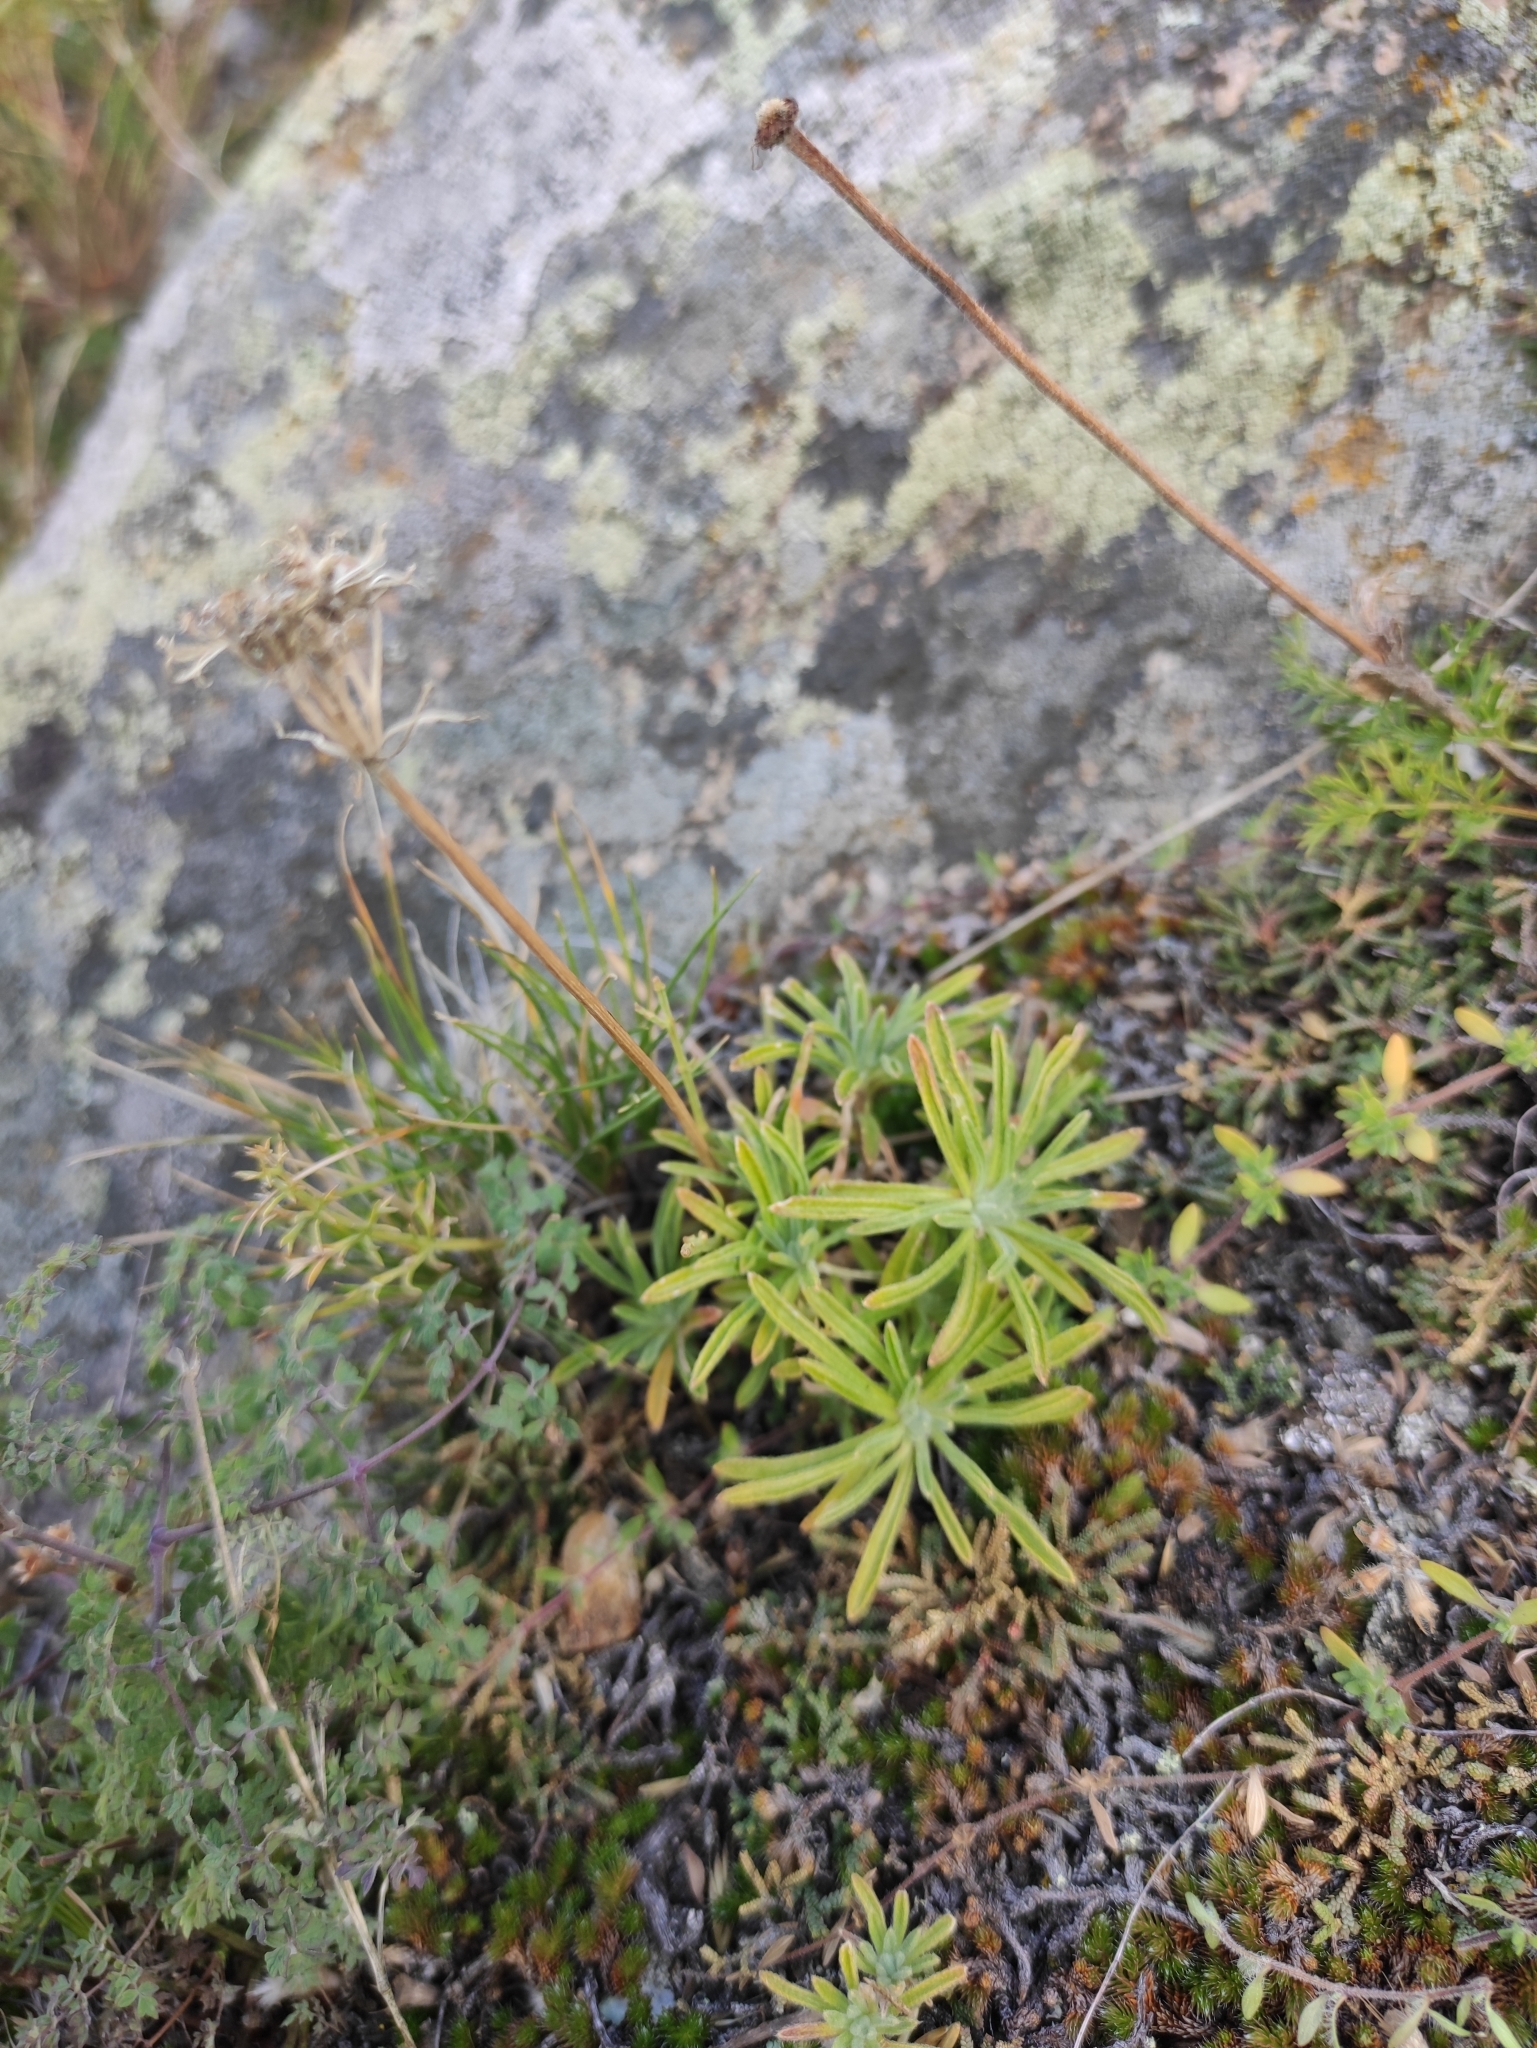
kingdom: Plantae
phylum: Tracheophyta
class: Magnoliopsida
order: Brassicales
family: Brassicaceae
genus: Stevenia
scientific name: Stevenia tenuifolia
